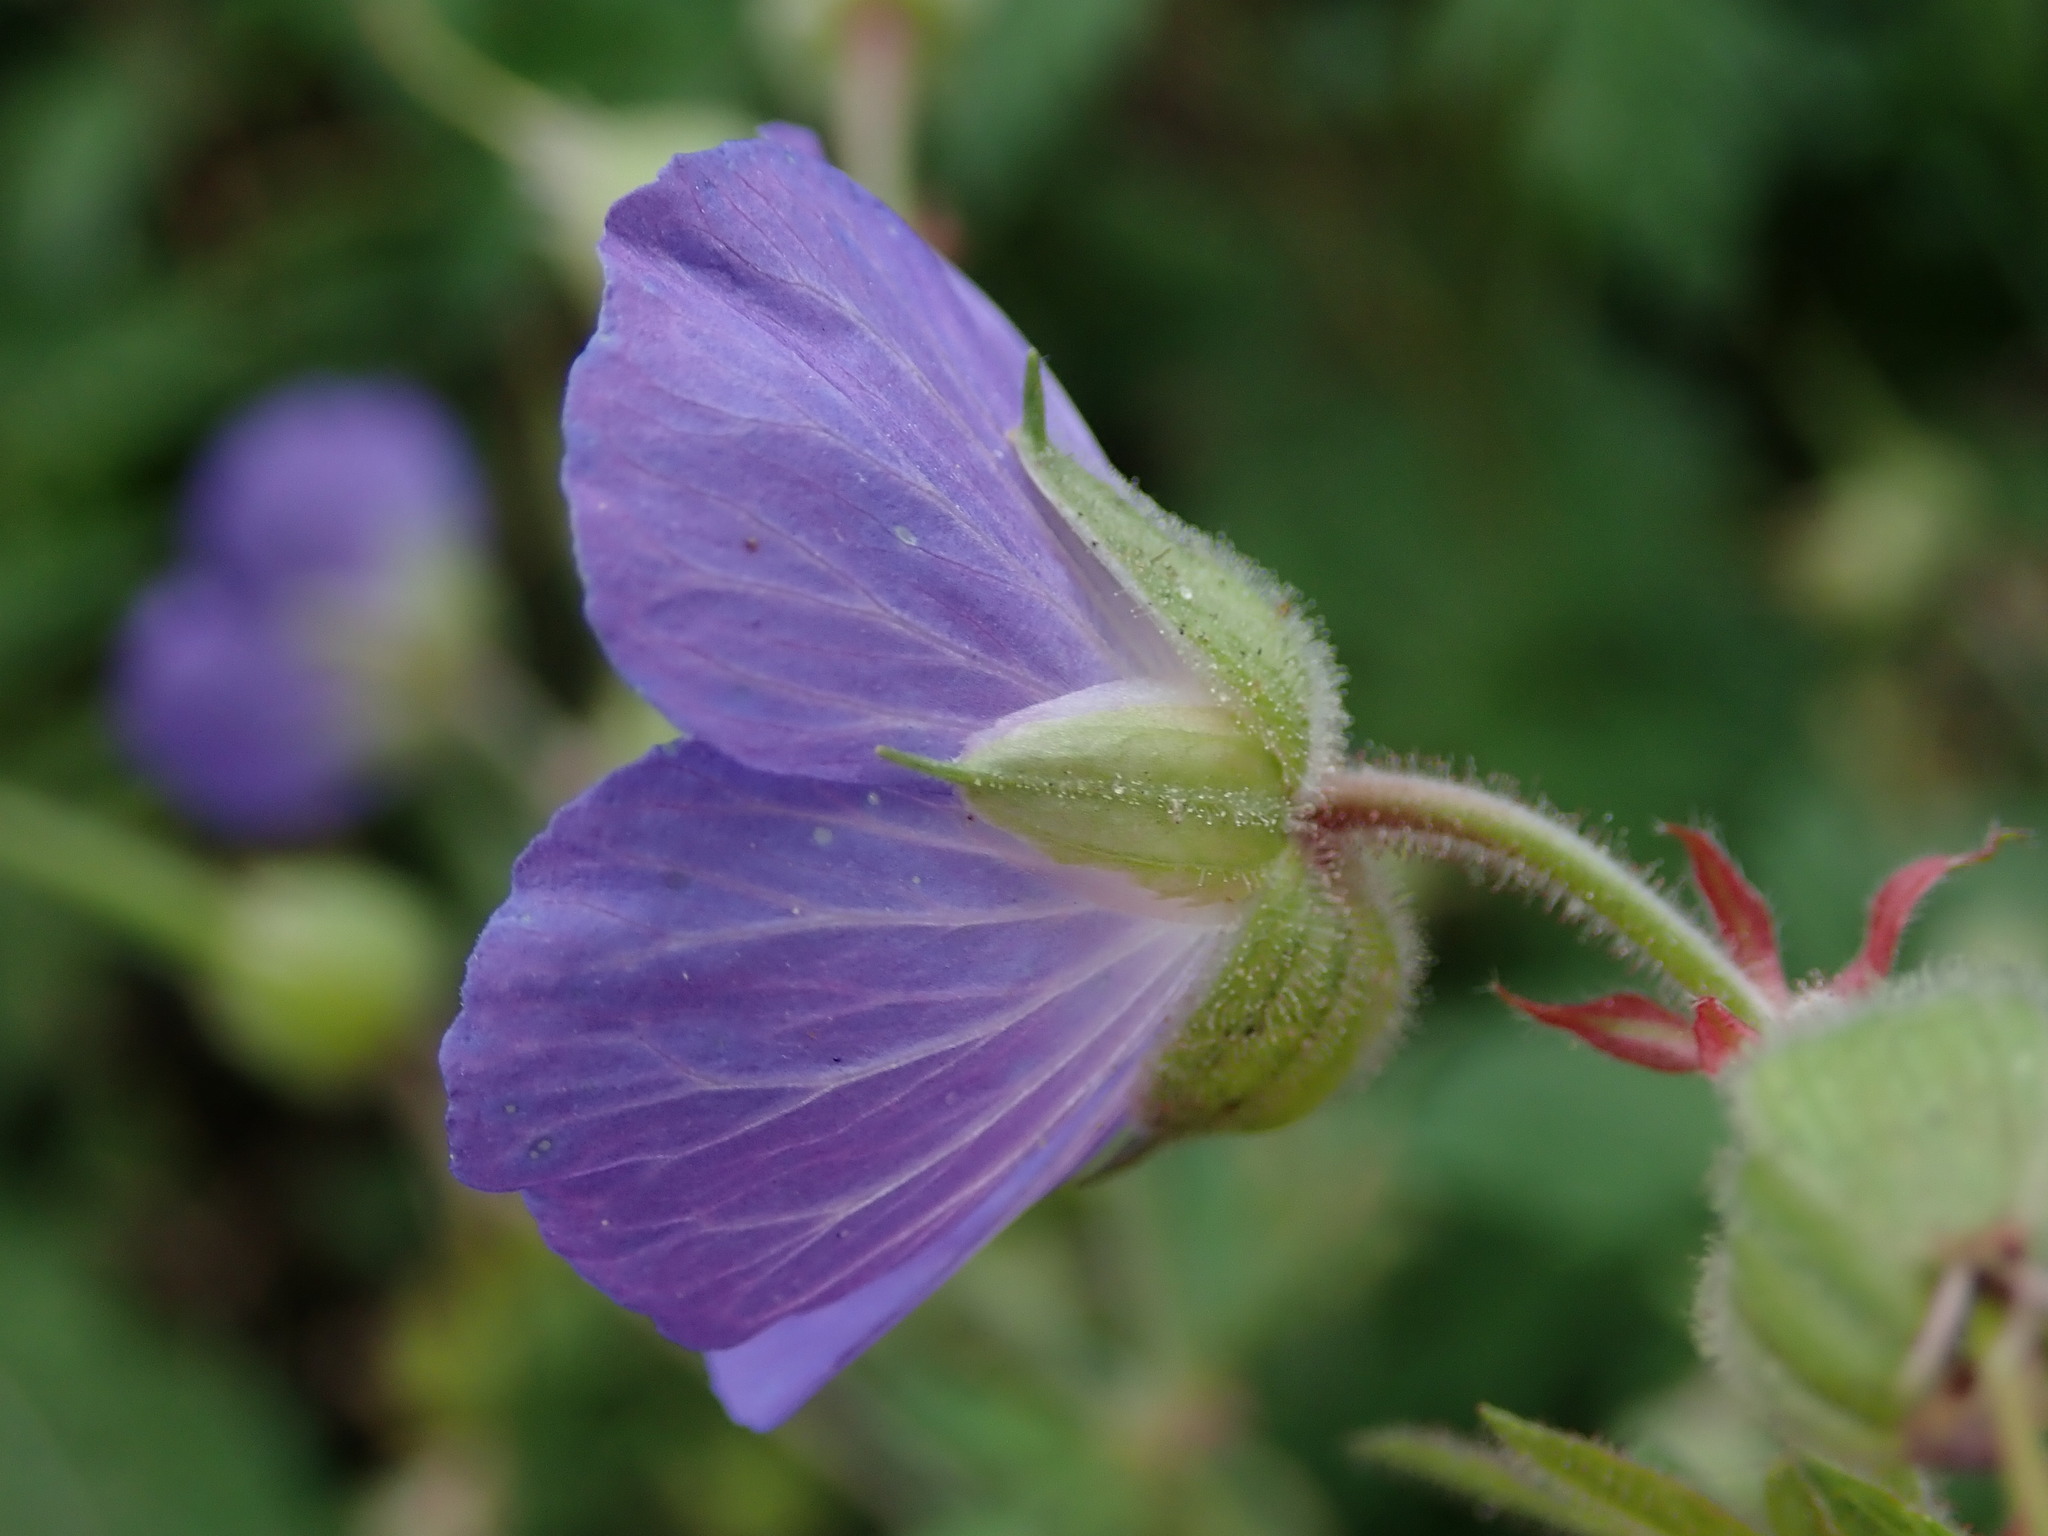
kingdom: Plantae
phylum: Tracheophyta
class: Magnoliopsida
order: Geraniales
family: Geraniaceae
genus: Geranium
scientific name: Geranium pratense
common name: Meadow crane's-bill
